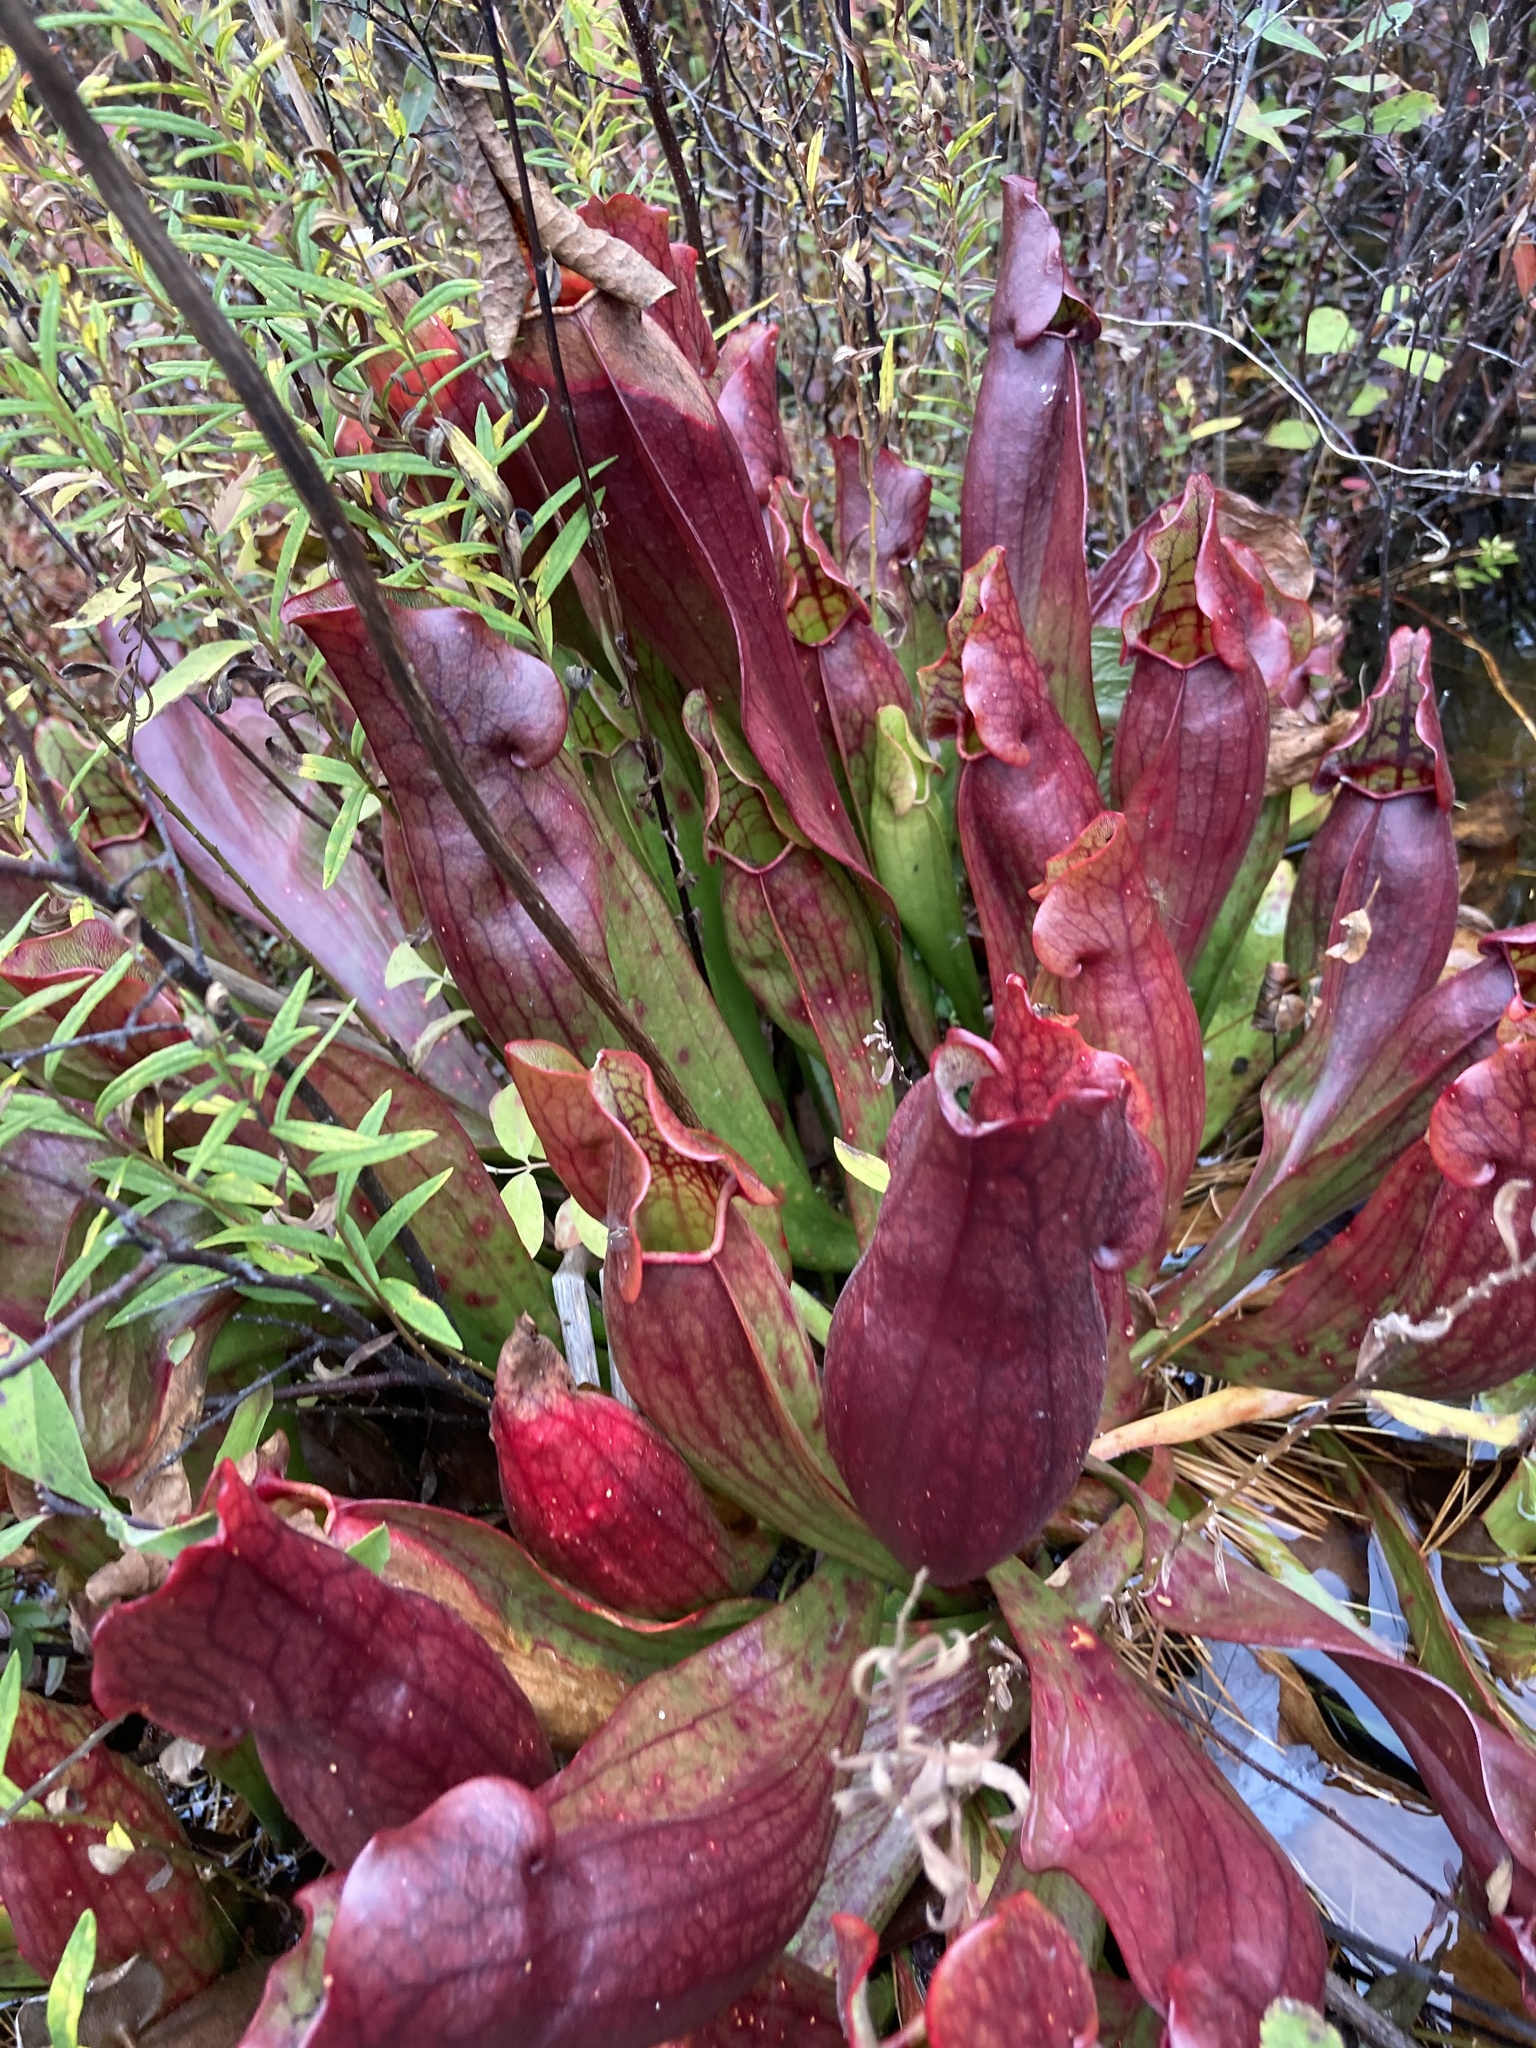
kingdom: Plantae
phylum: Tracheophyta
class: Magnoliopsida
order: Ericales
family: Sarraceniaceae
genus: Sarracenia
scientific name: Sarracenia purpurea
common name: Pitcherplant
